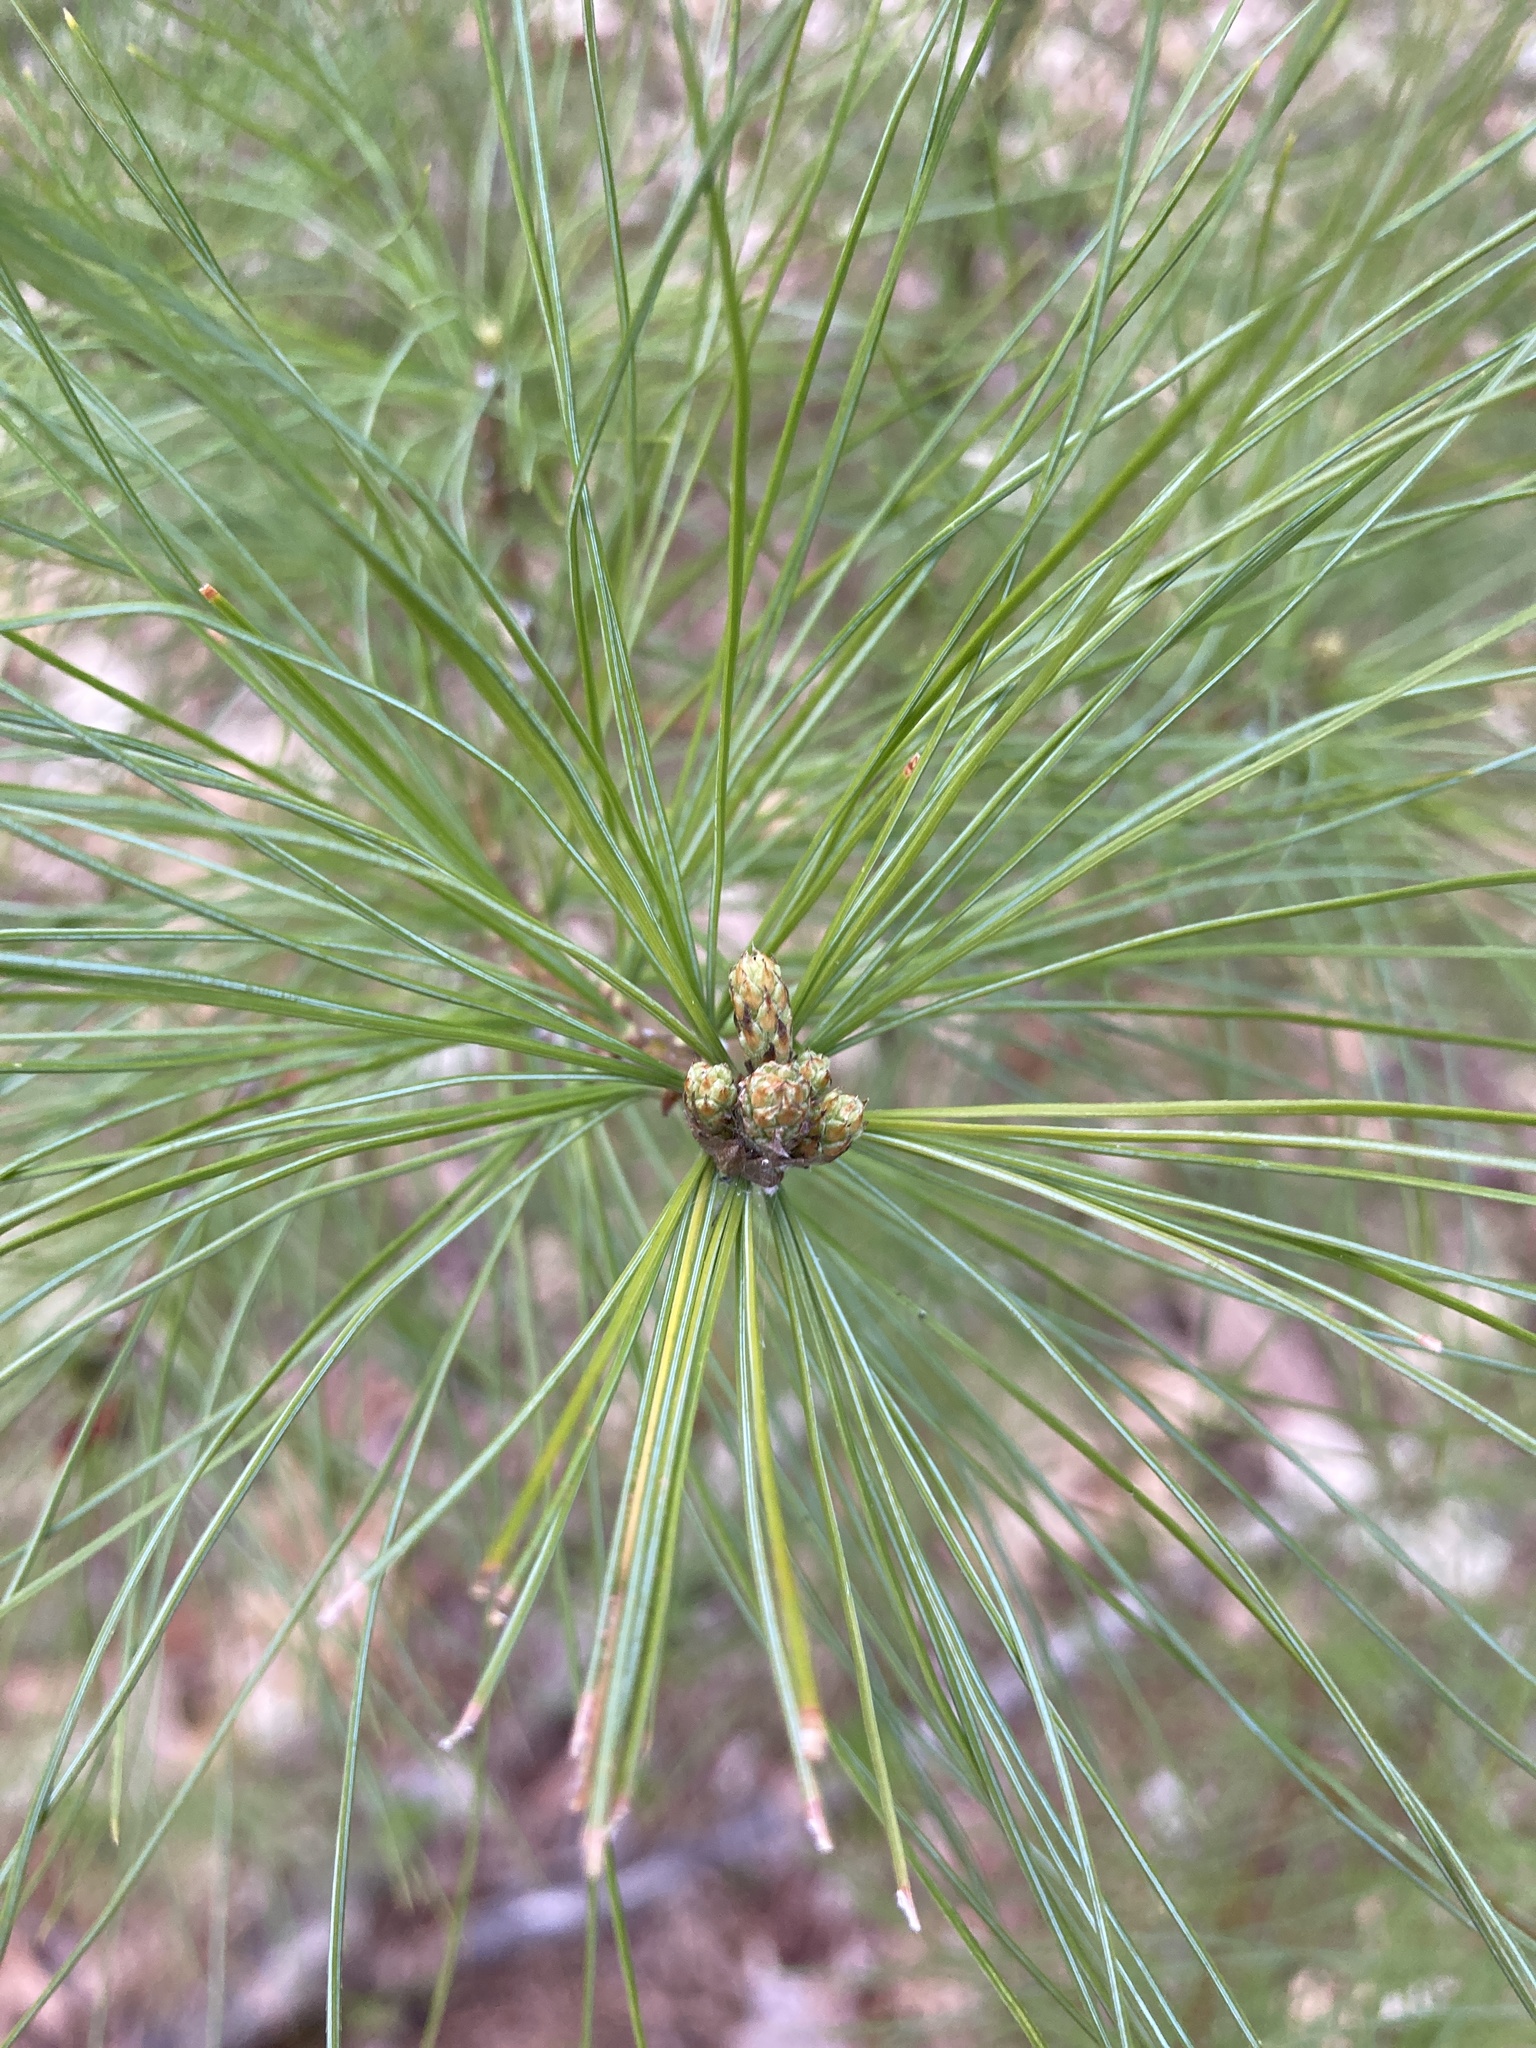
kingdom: Plantae
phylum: Tracheophyta
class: Pinopsida
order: Pinales
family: Pinaceae
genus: Pinus
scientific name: Pinus strobus
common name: Weymouth pine
